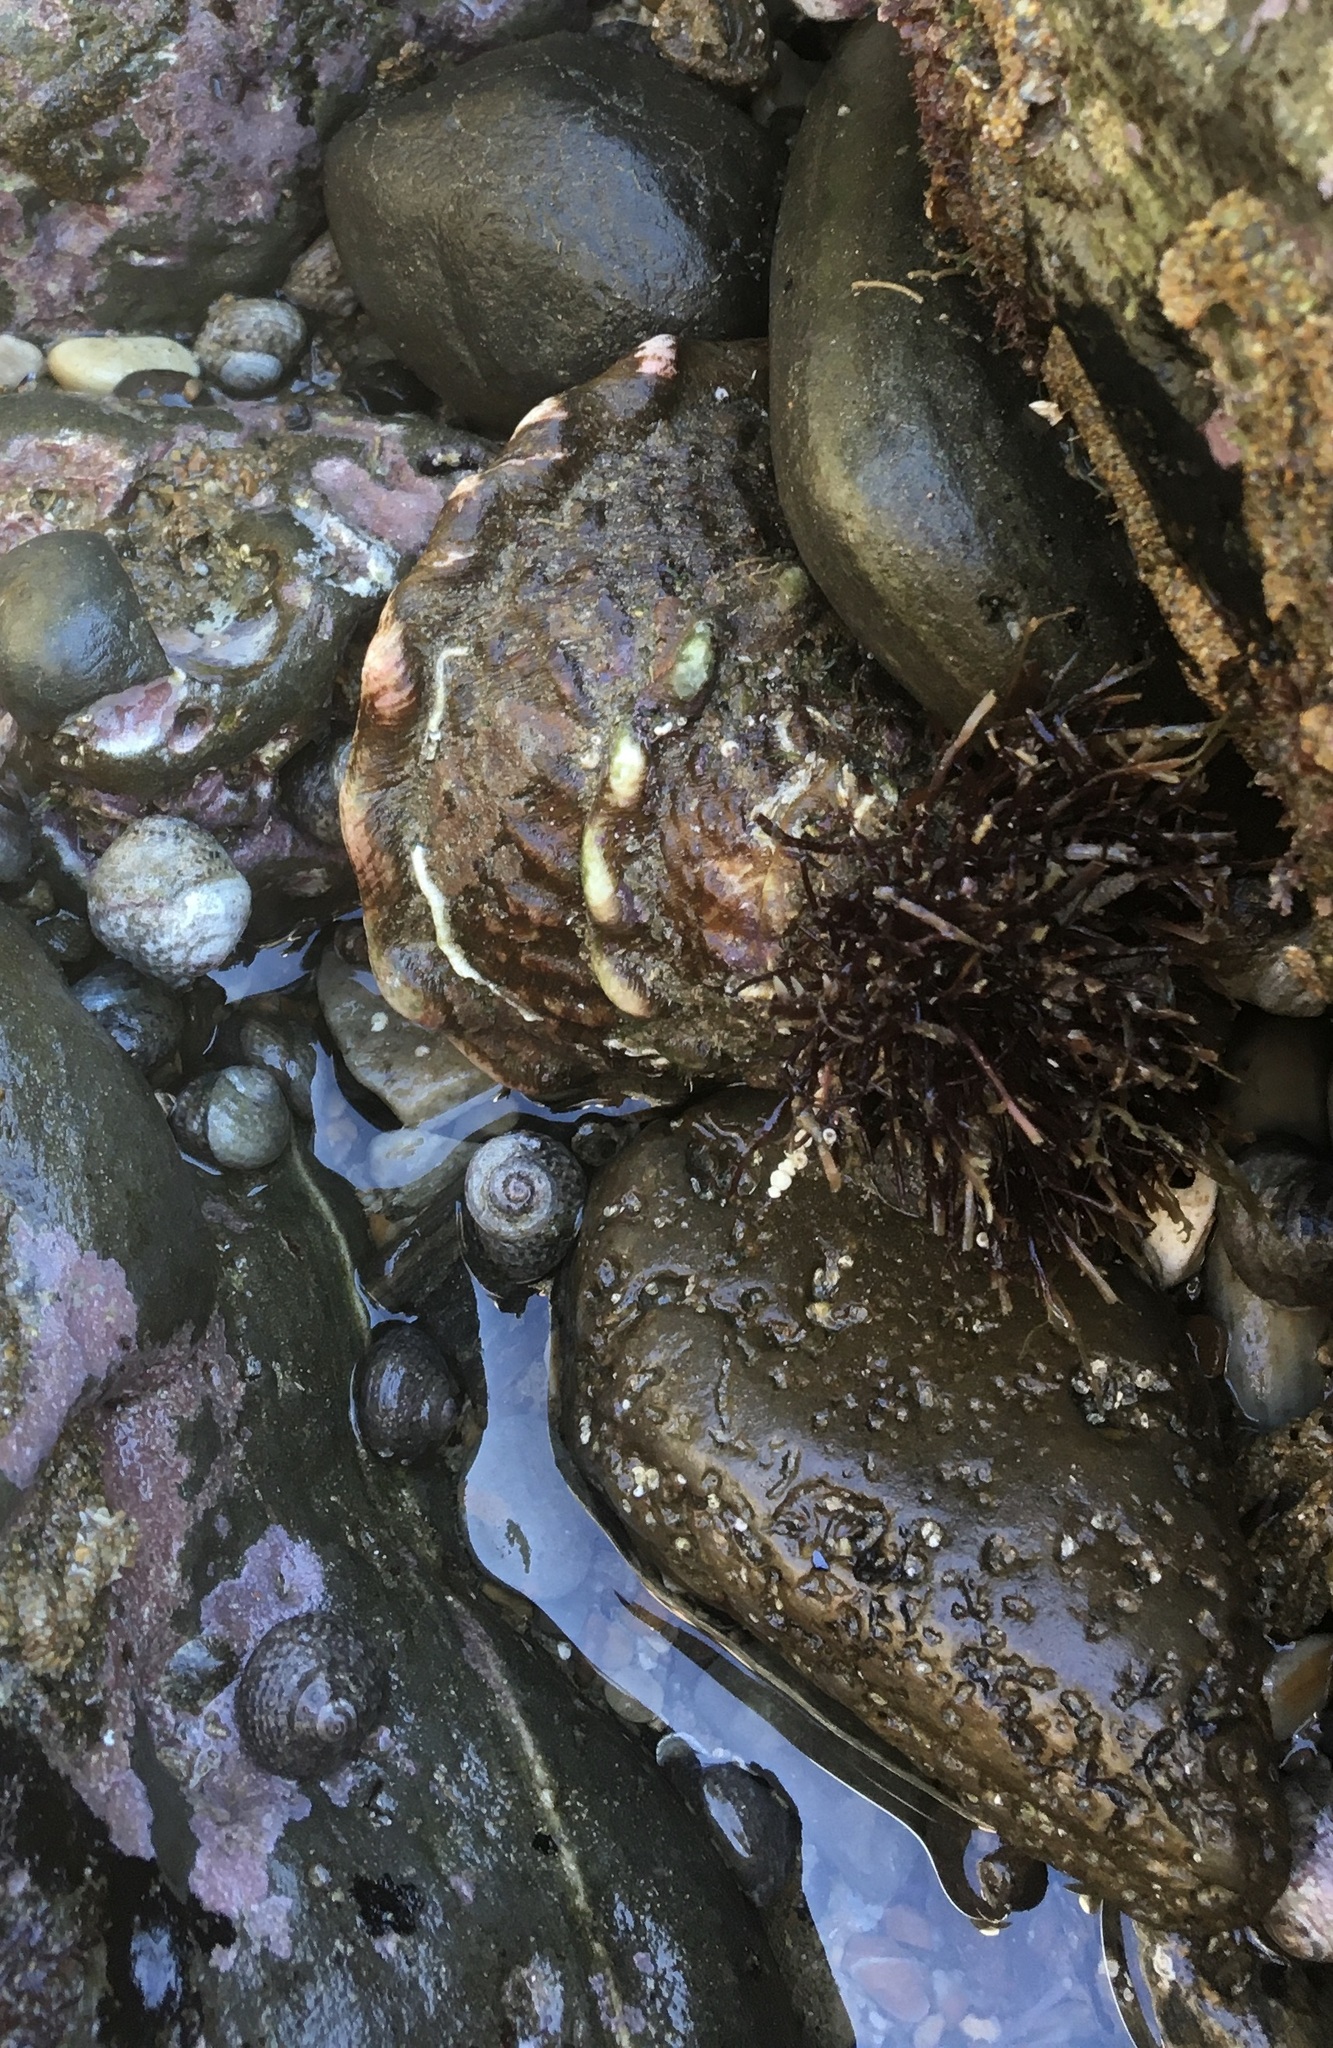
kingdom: Animalia
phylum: Mollusca
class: Gastropoda
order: Trochida
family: Turbinidae
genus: Megastraea
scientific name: Megastraea undosa
